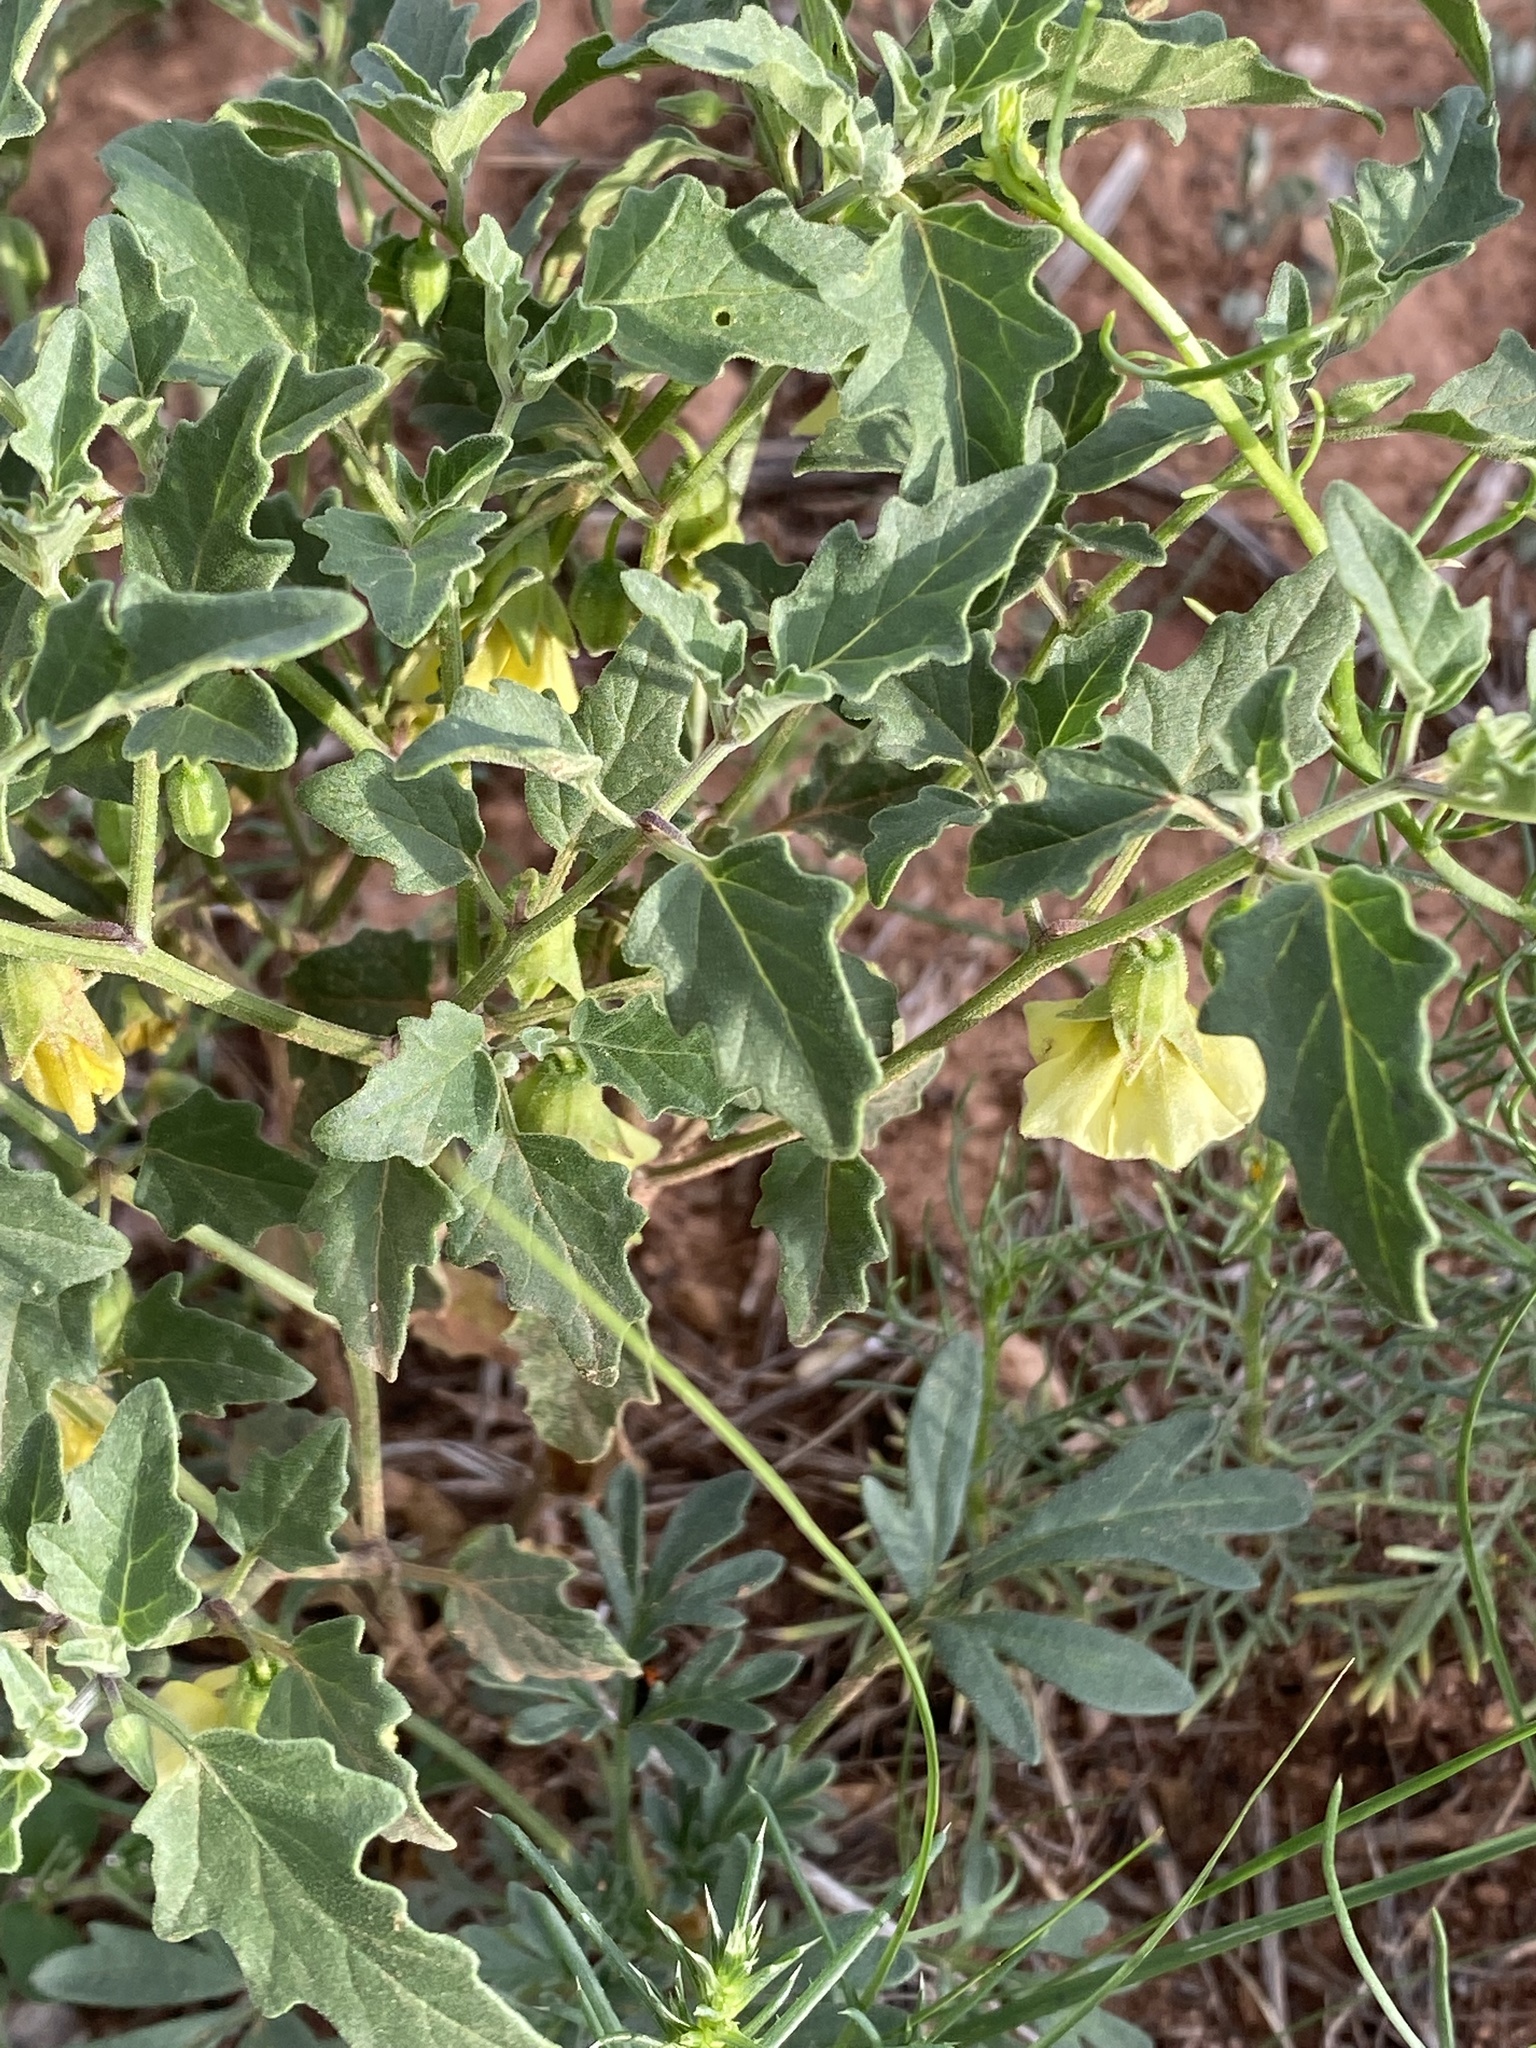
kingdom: Plantae
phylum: Tracheophyta
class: Magnoliopsida
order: Solanales
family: Solanaceae
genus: Physalis
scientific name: Physalis hederifolia
